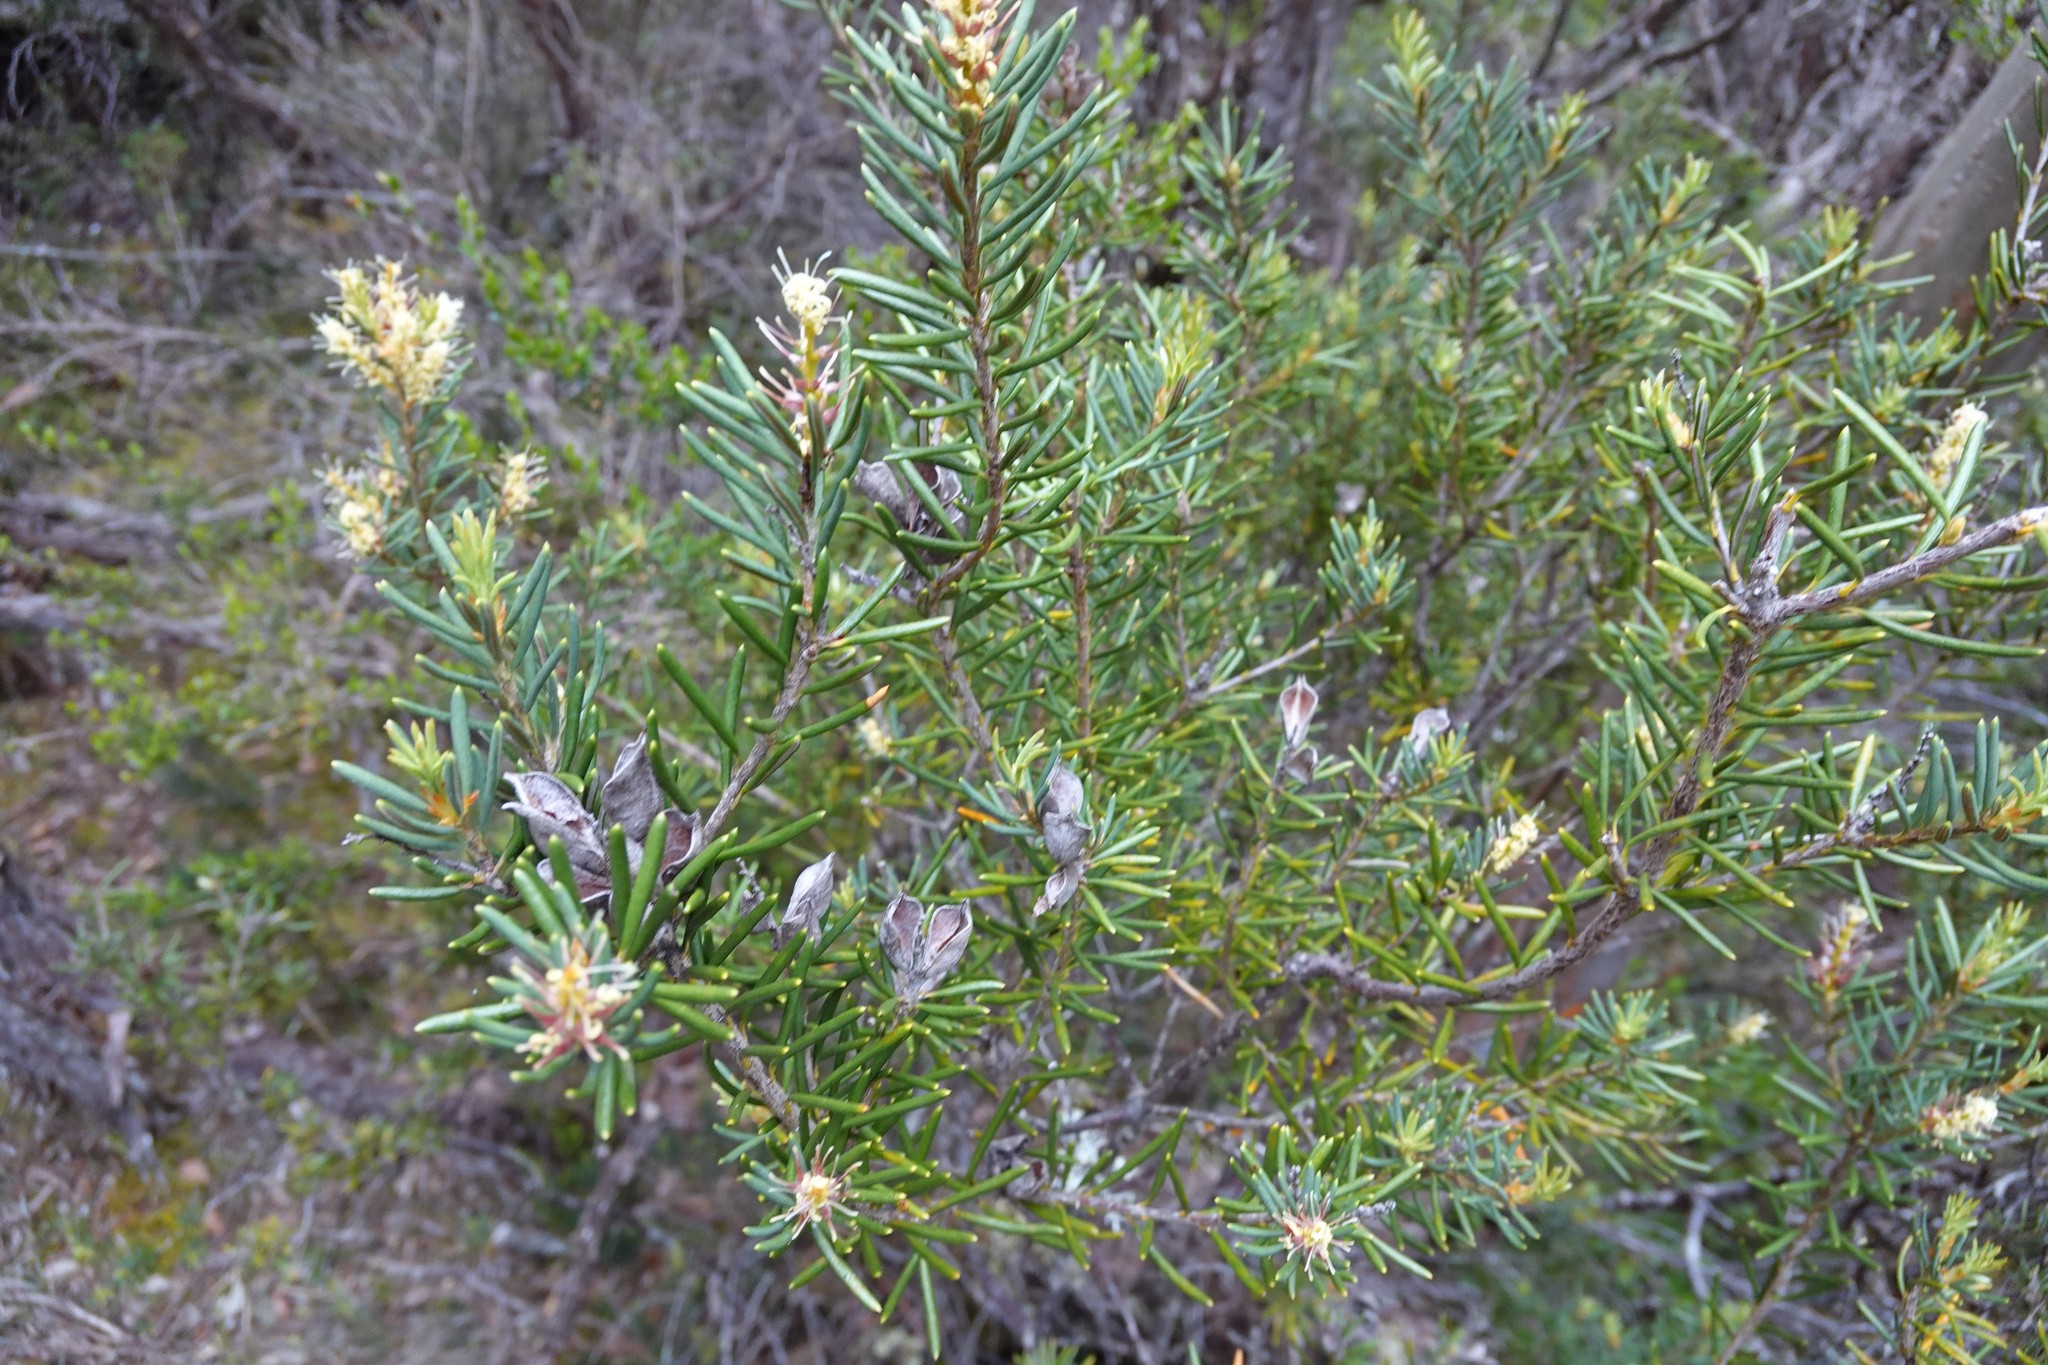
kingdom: Plantae
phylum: Tracheophyta
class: Magnoliopsida
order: Proteales
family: Proteaceae
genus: Orites
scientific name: Orites revolutus
